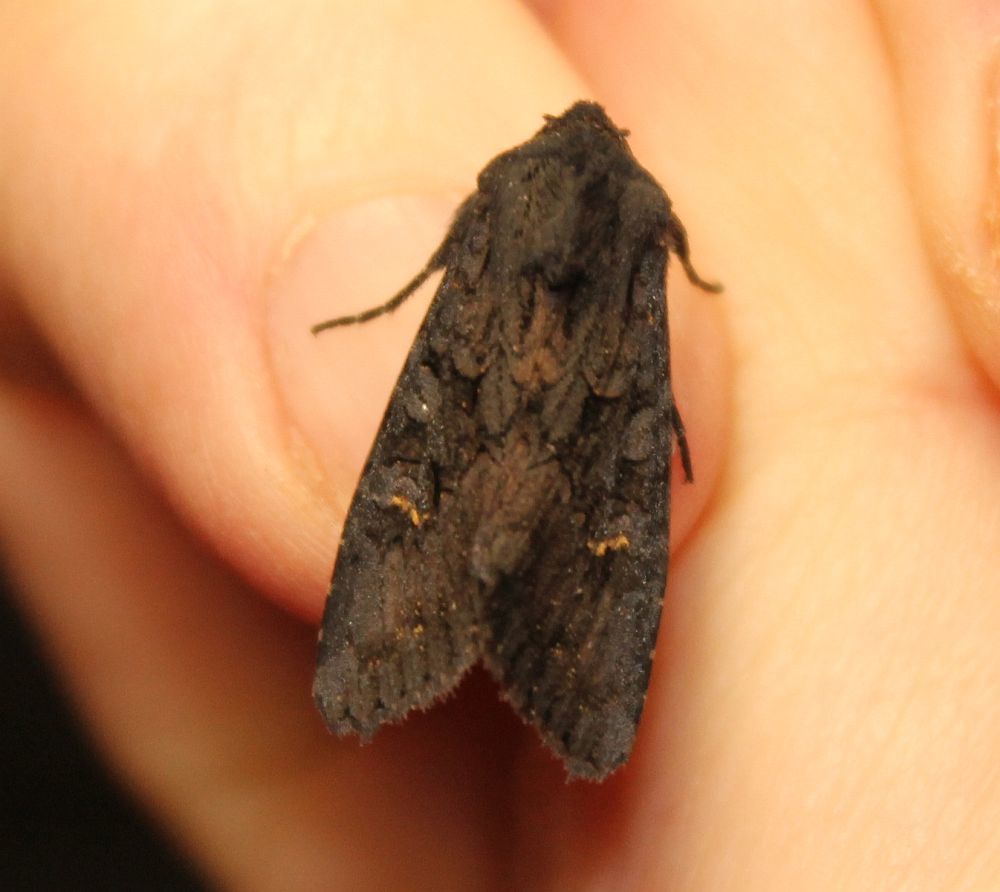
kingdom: Animalia
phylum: Arthropoda
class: Insecta
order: Lepidoptera
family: Noctuidae
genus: Aporophyla
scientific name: Aporophyla nigra
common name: Black rustic
